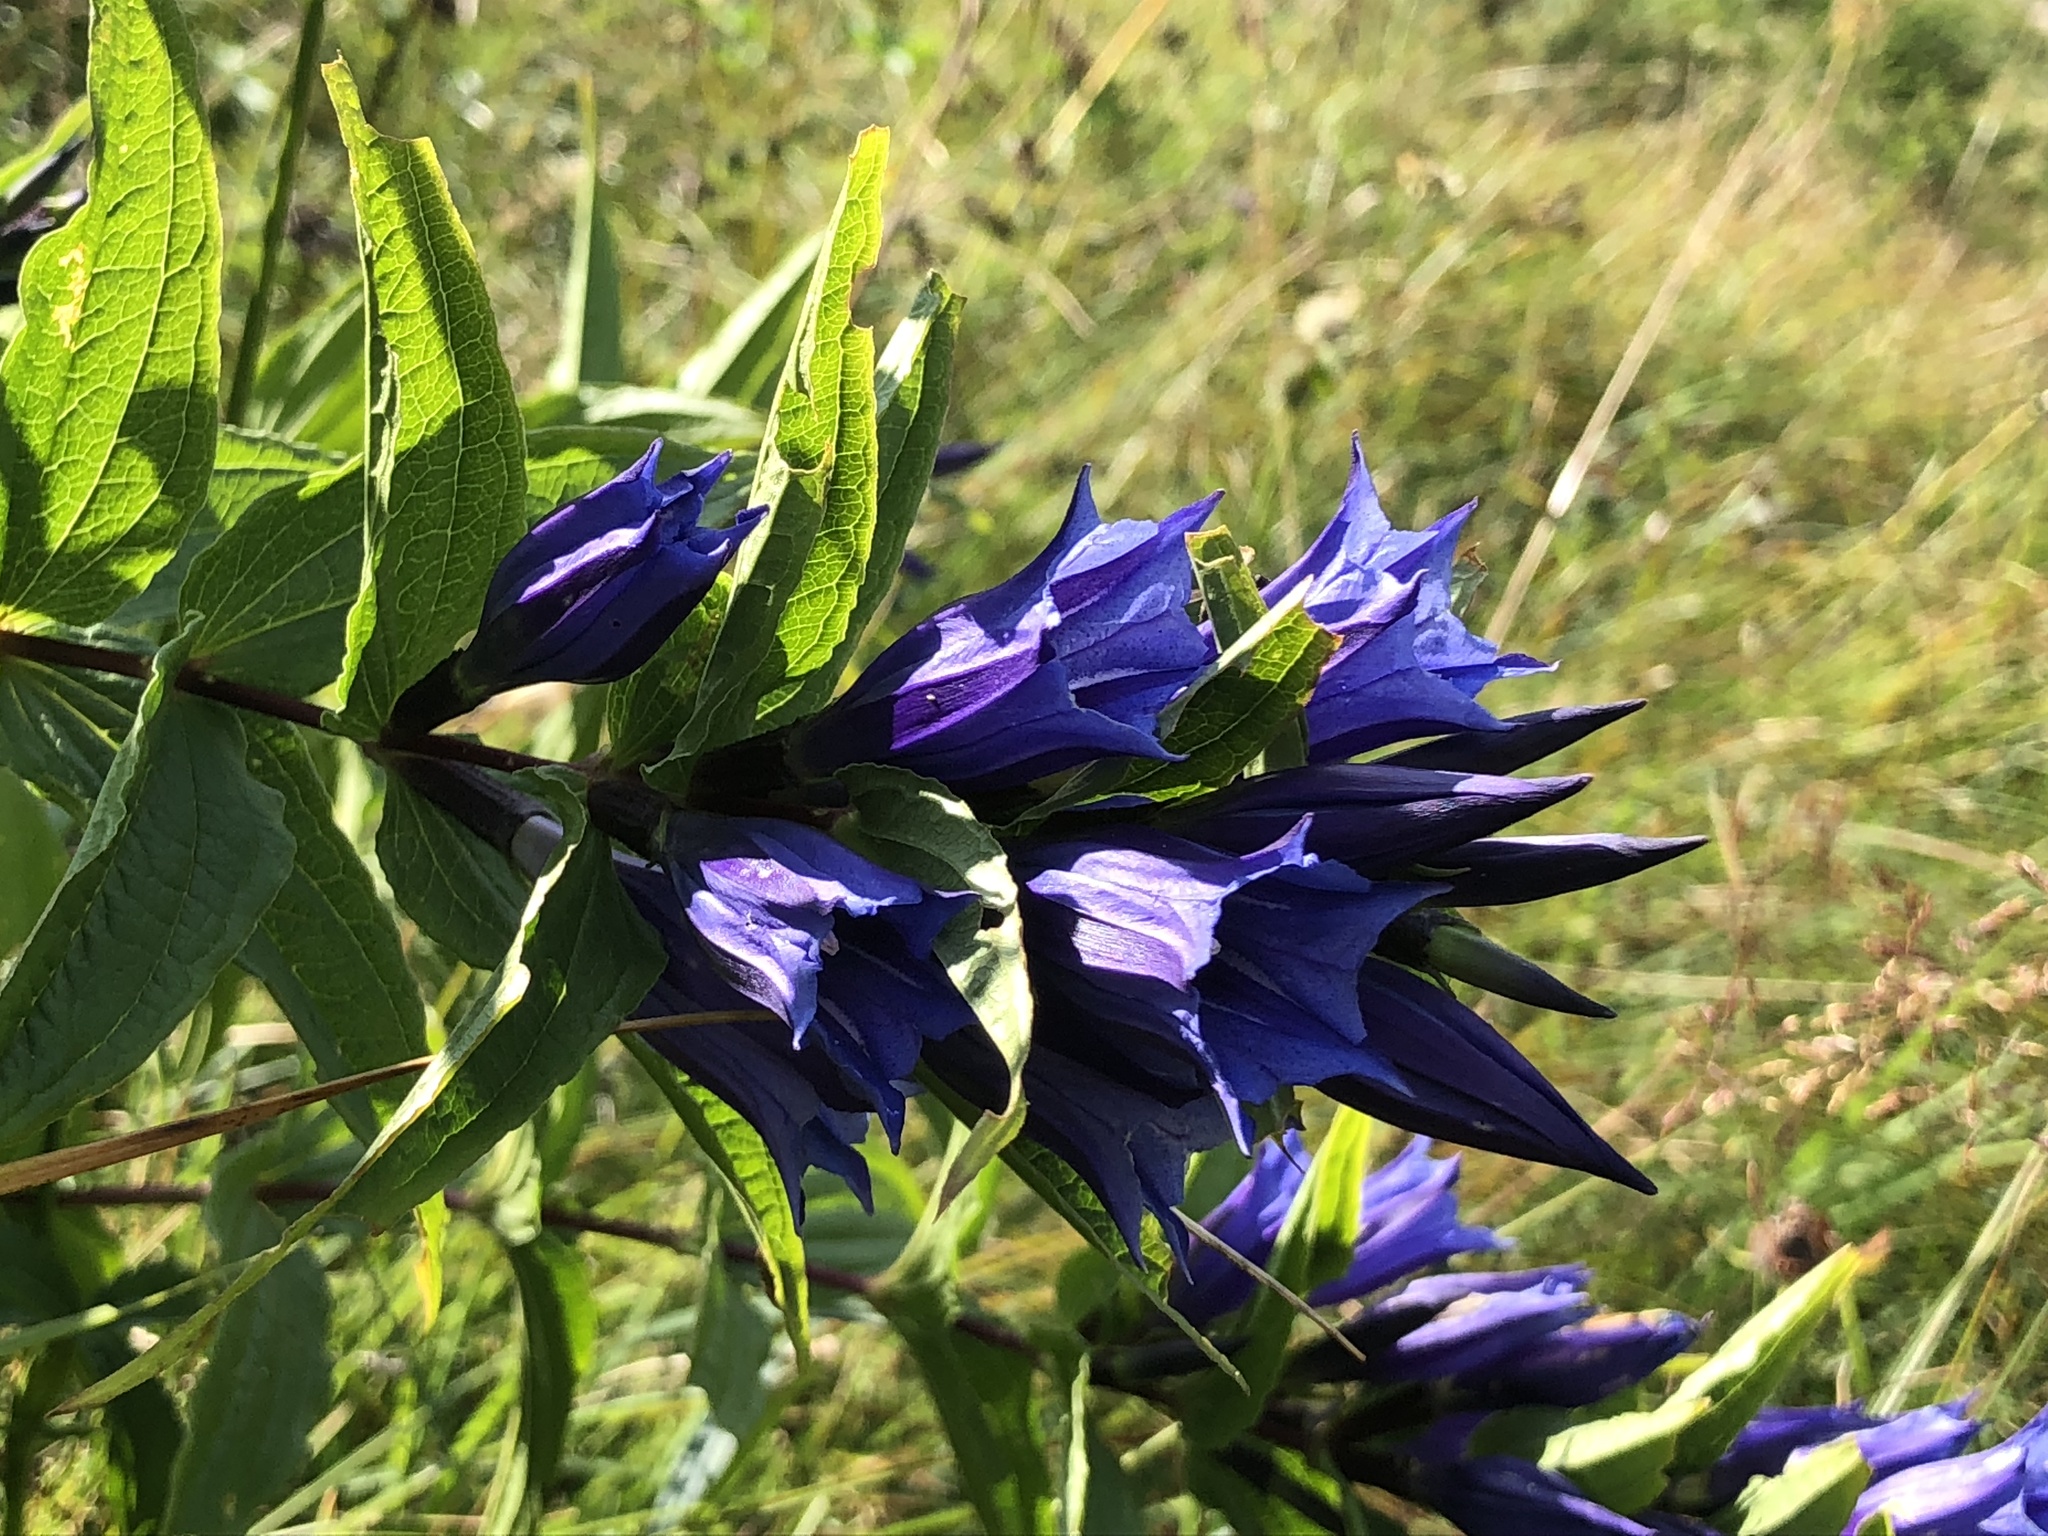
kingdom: Plantae
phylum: Tracheophyta
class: Magnoliopsida
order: Gentianales
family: Gentianaceae
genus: Gentiana
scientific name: Gentiana asclepiadea
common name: Willow gentian
